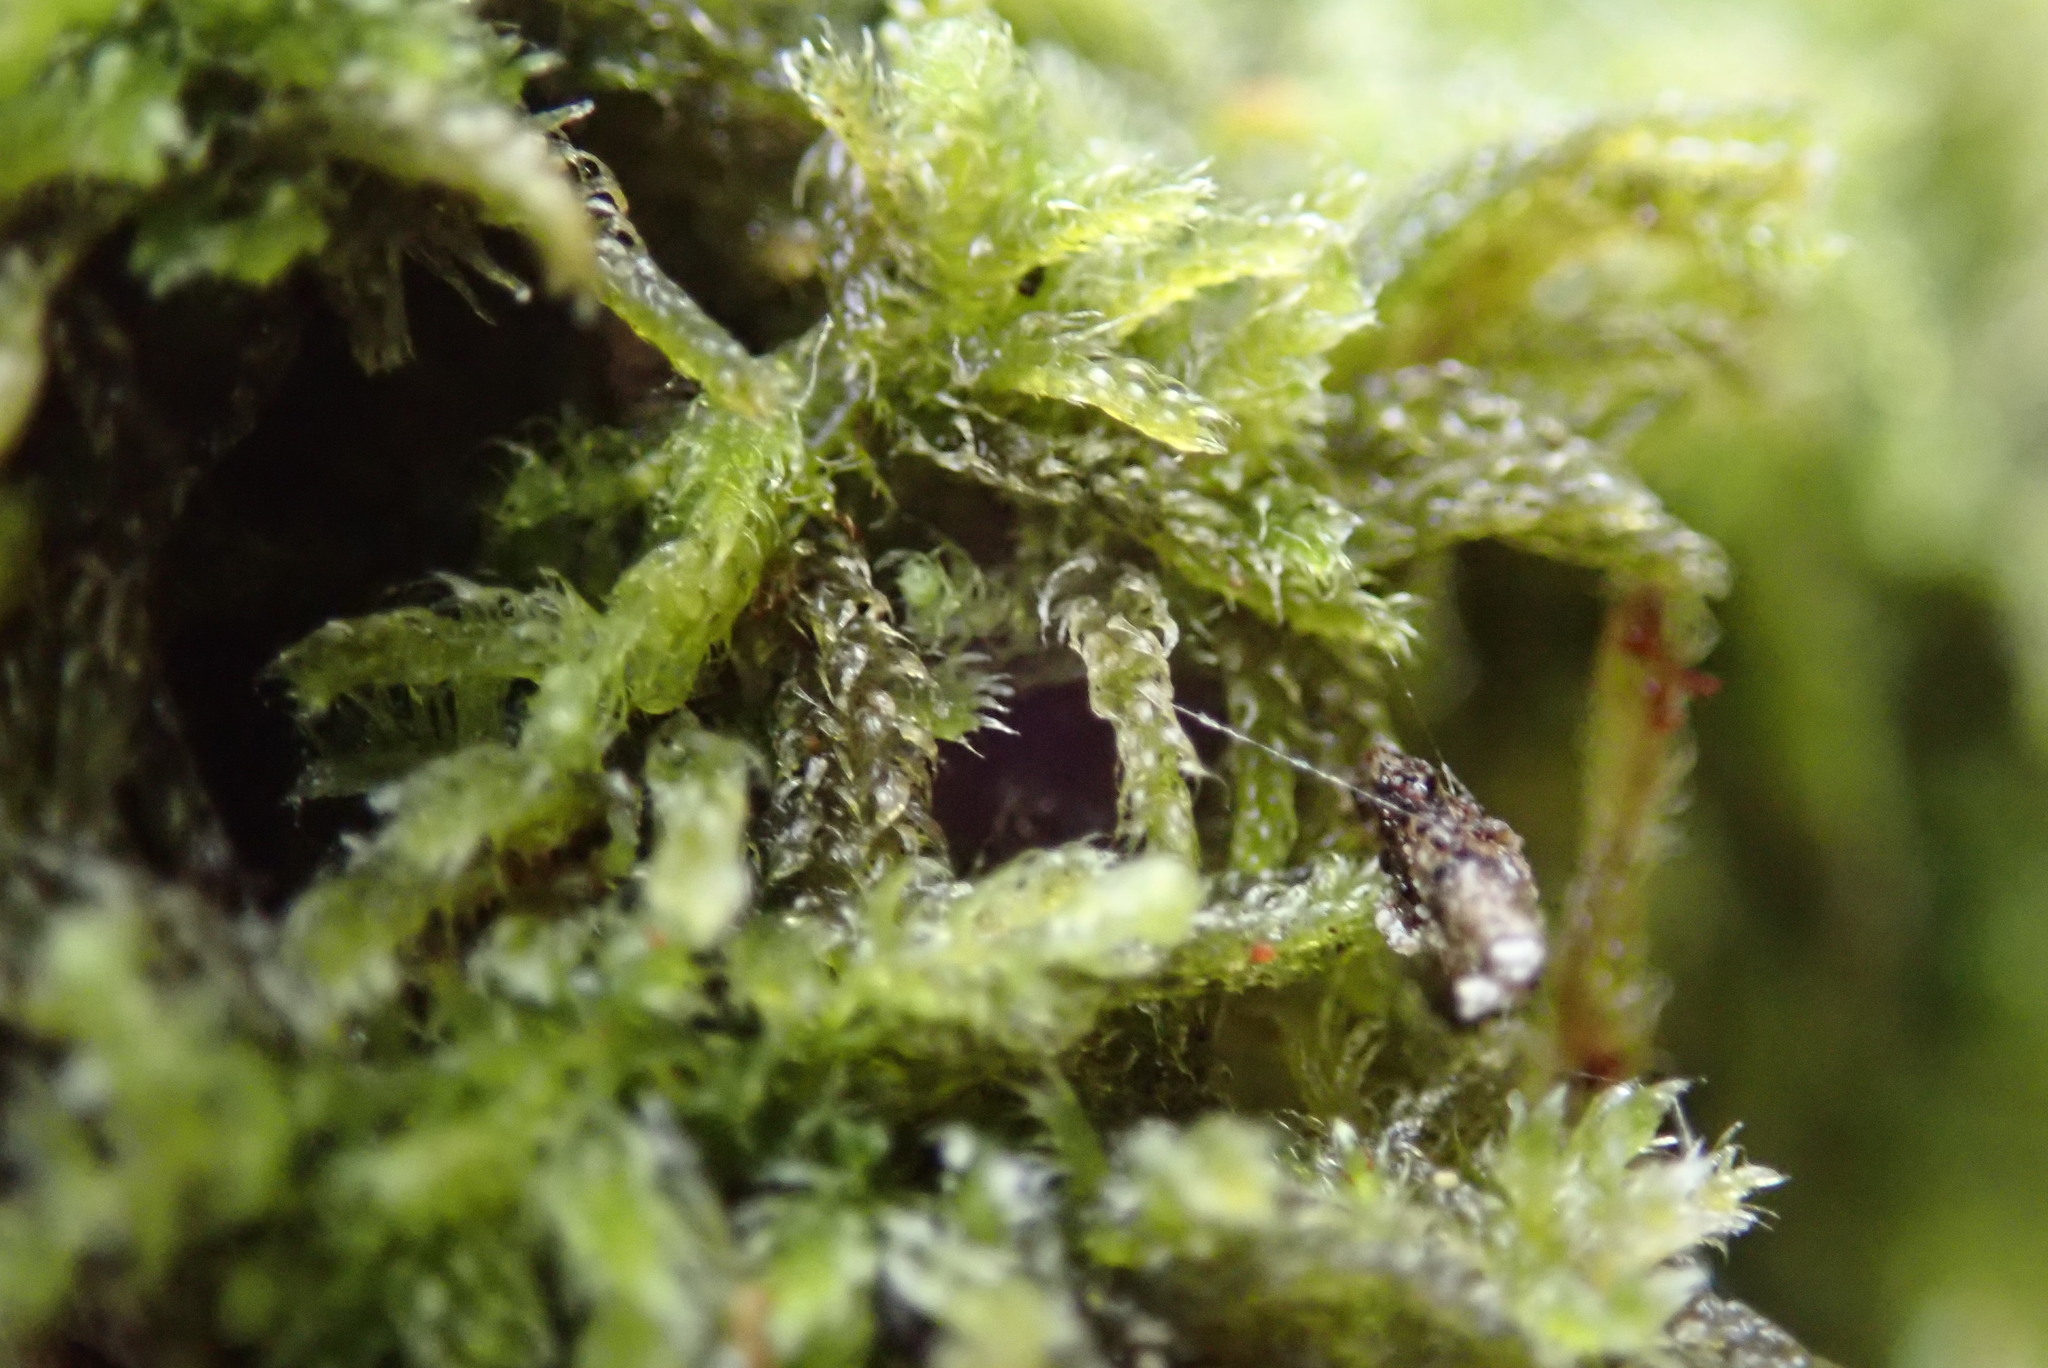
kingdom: Plantae
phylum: Marchantiophyta
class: Jungermanniopsida
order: Ptilidiales
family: Ptilidiaceae
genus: Ptilidium
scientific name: Ptilidium californicum
